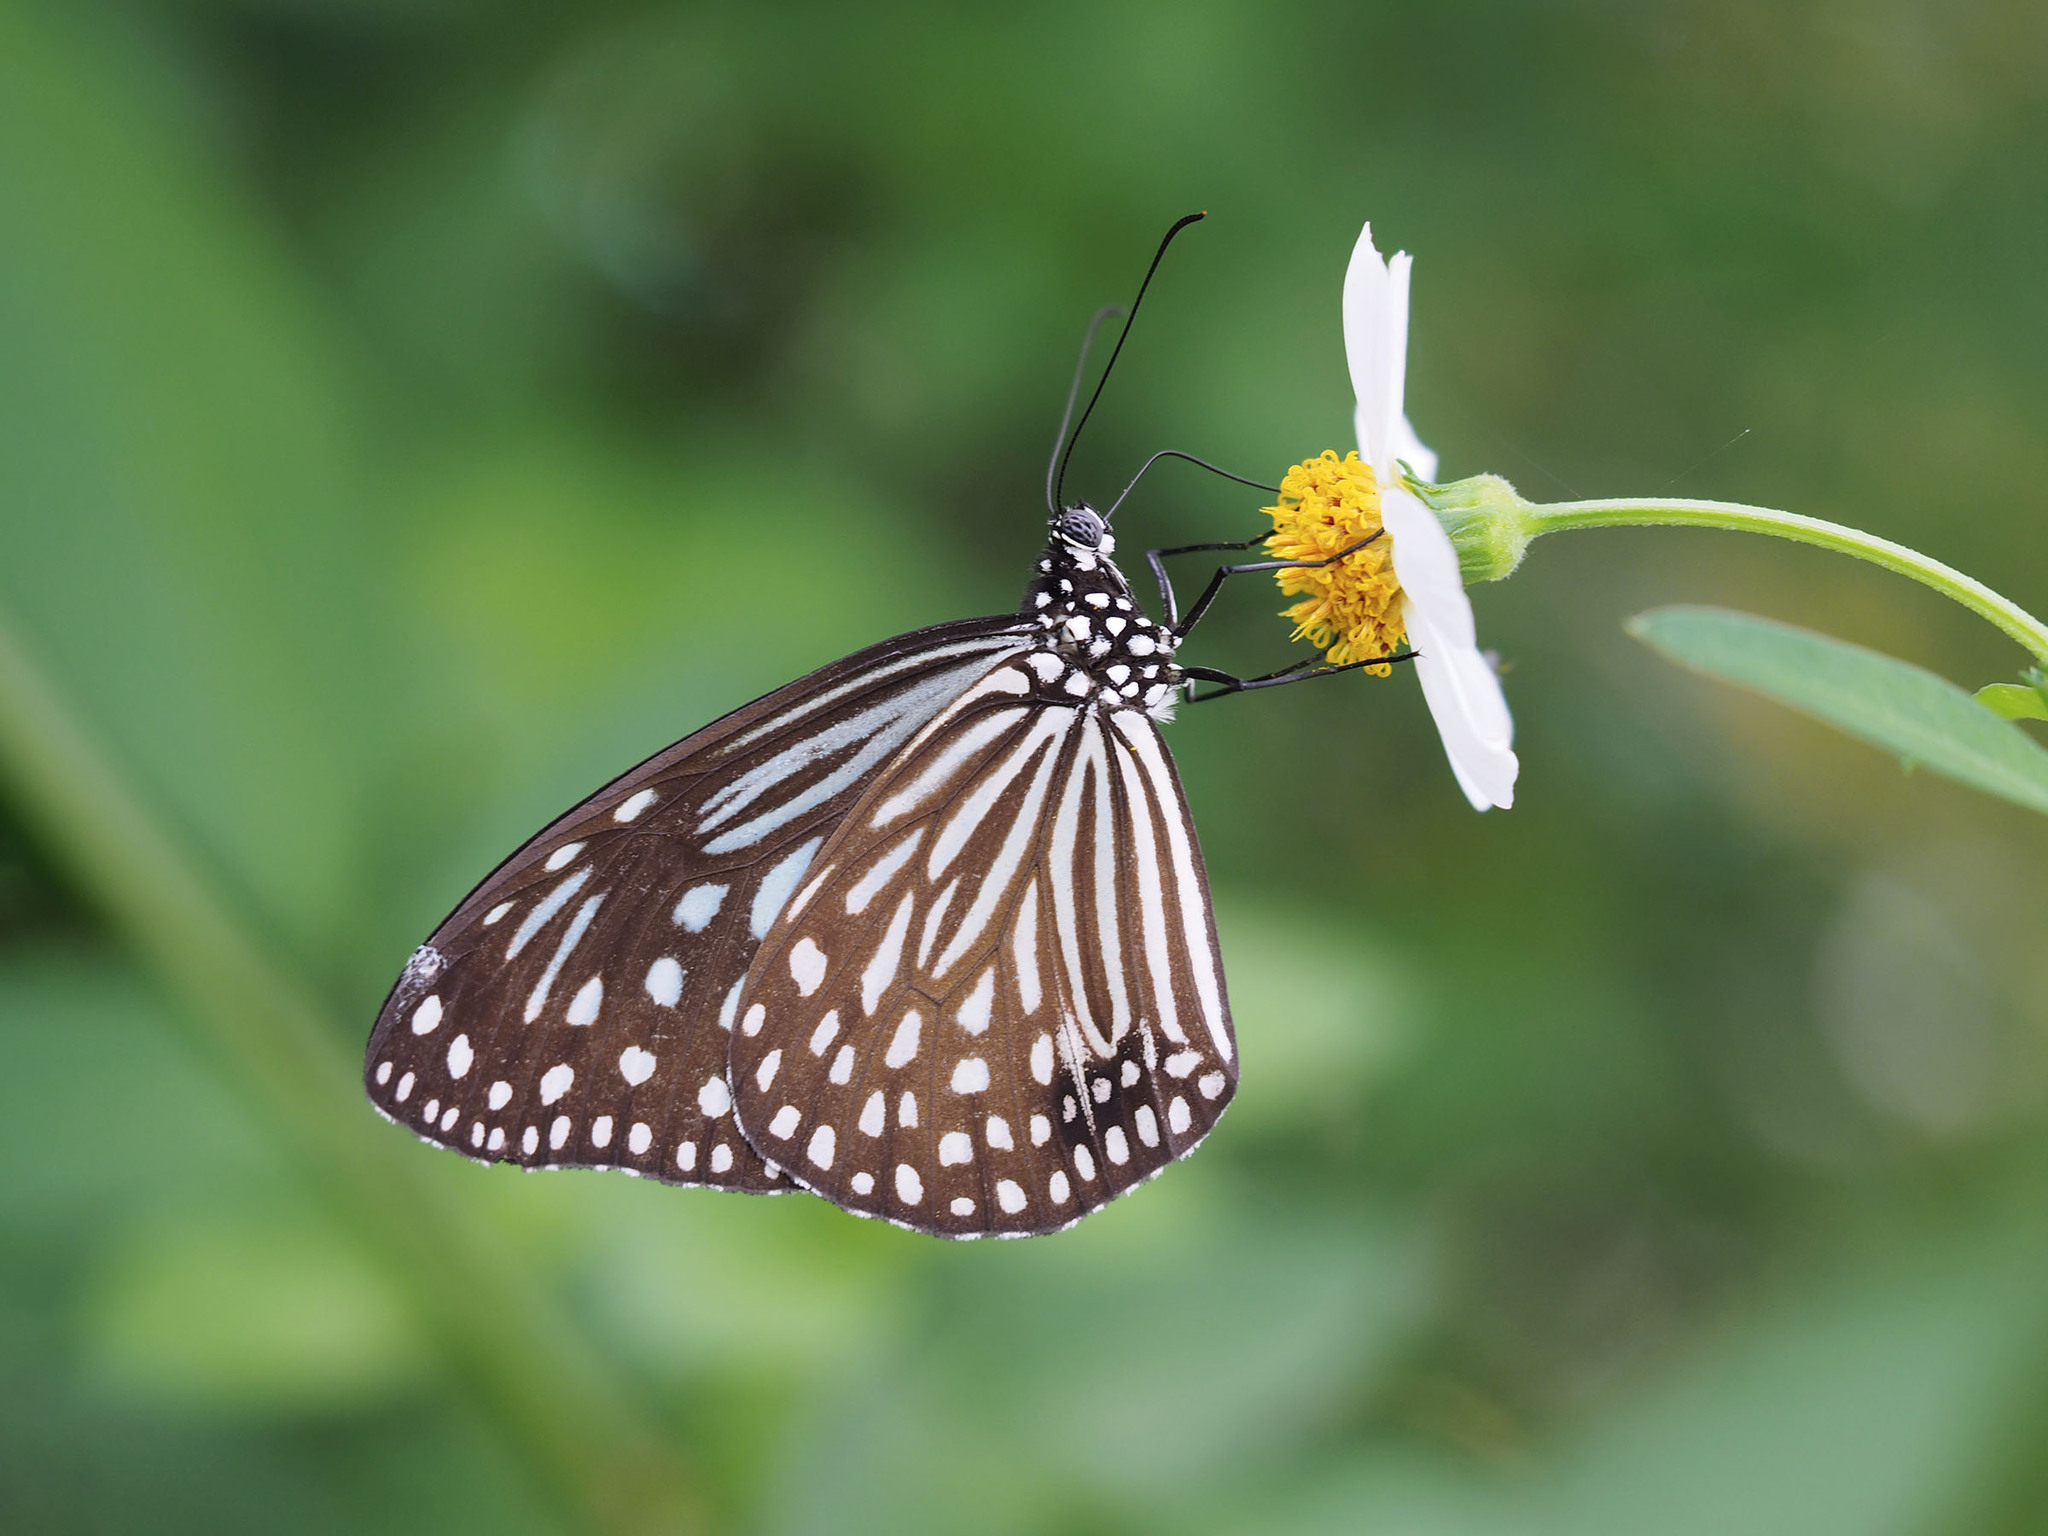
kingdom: Animalia
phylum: Arthropoda
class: Insecta
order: Lepidoptera
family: Nymphalidae
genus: Parantica
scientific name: Parantica agleoides
